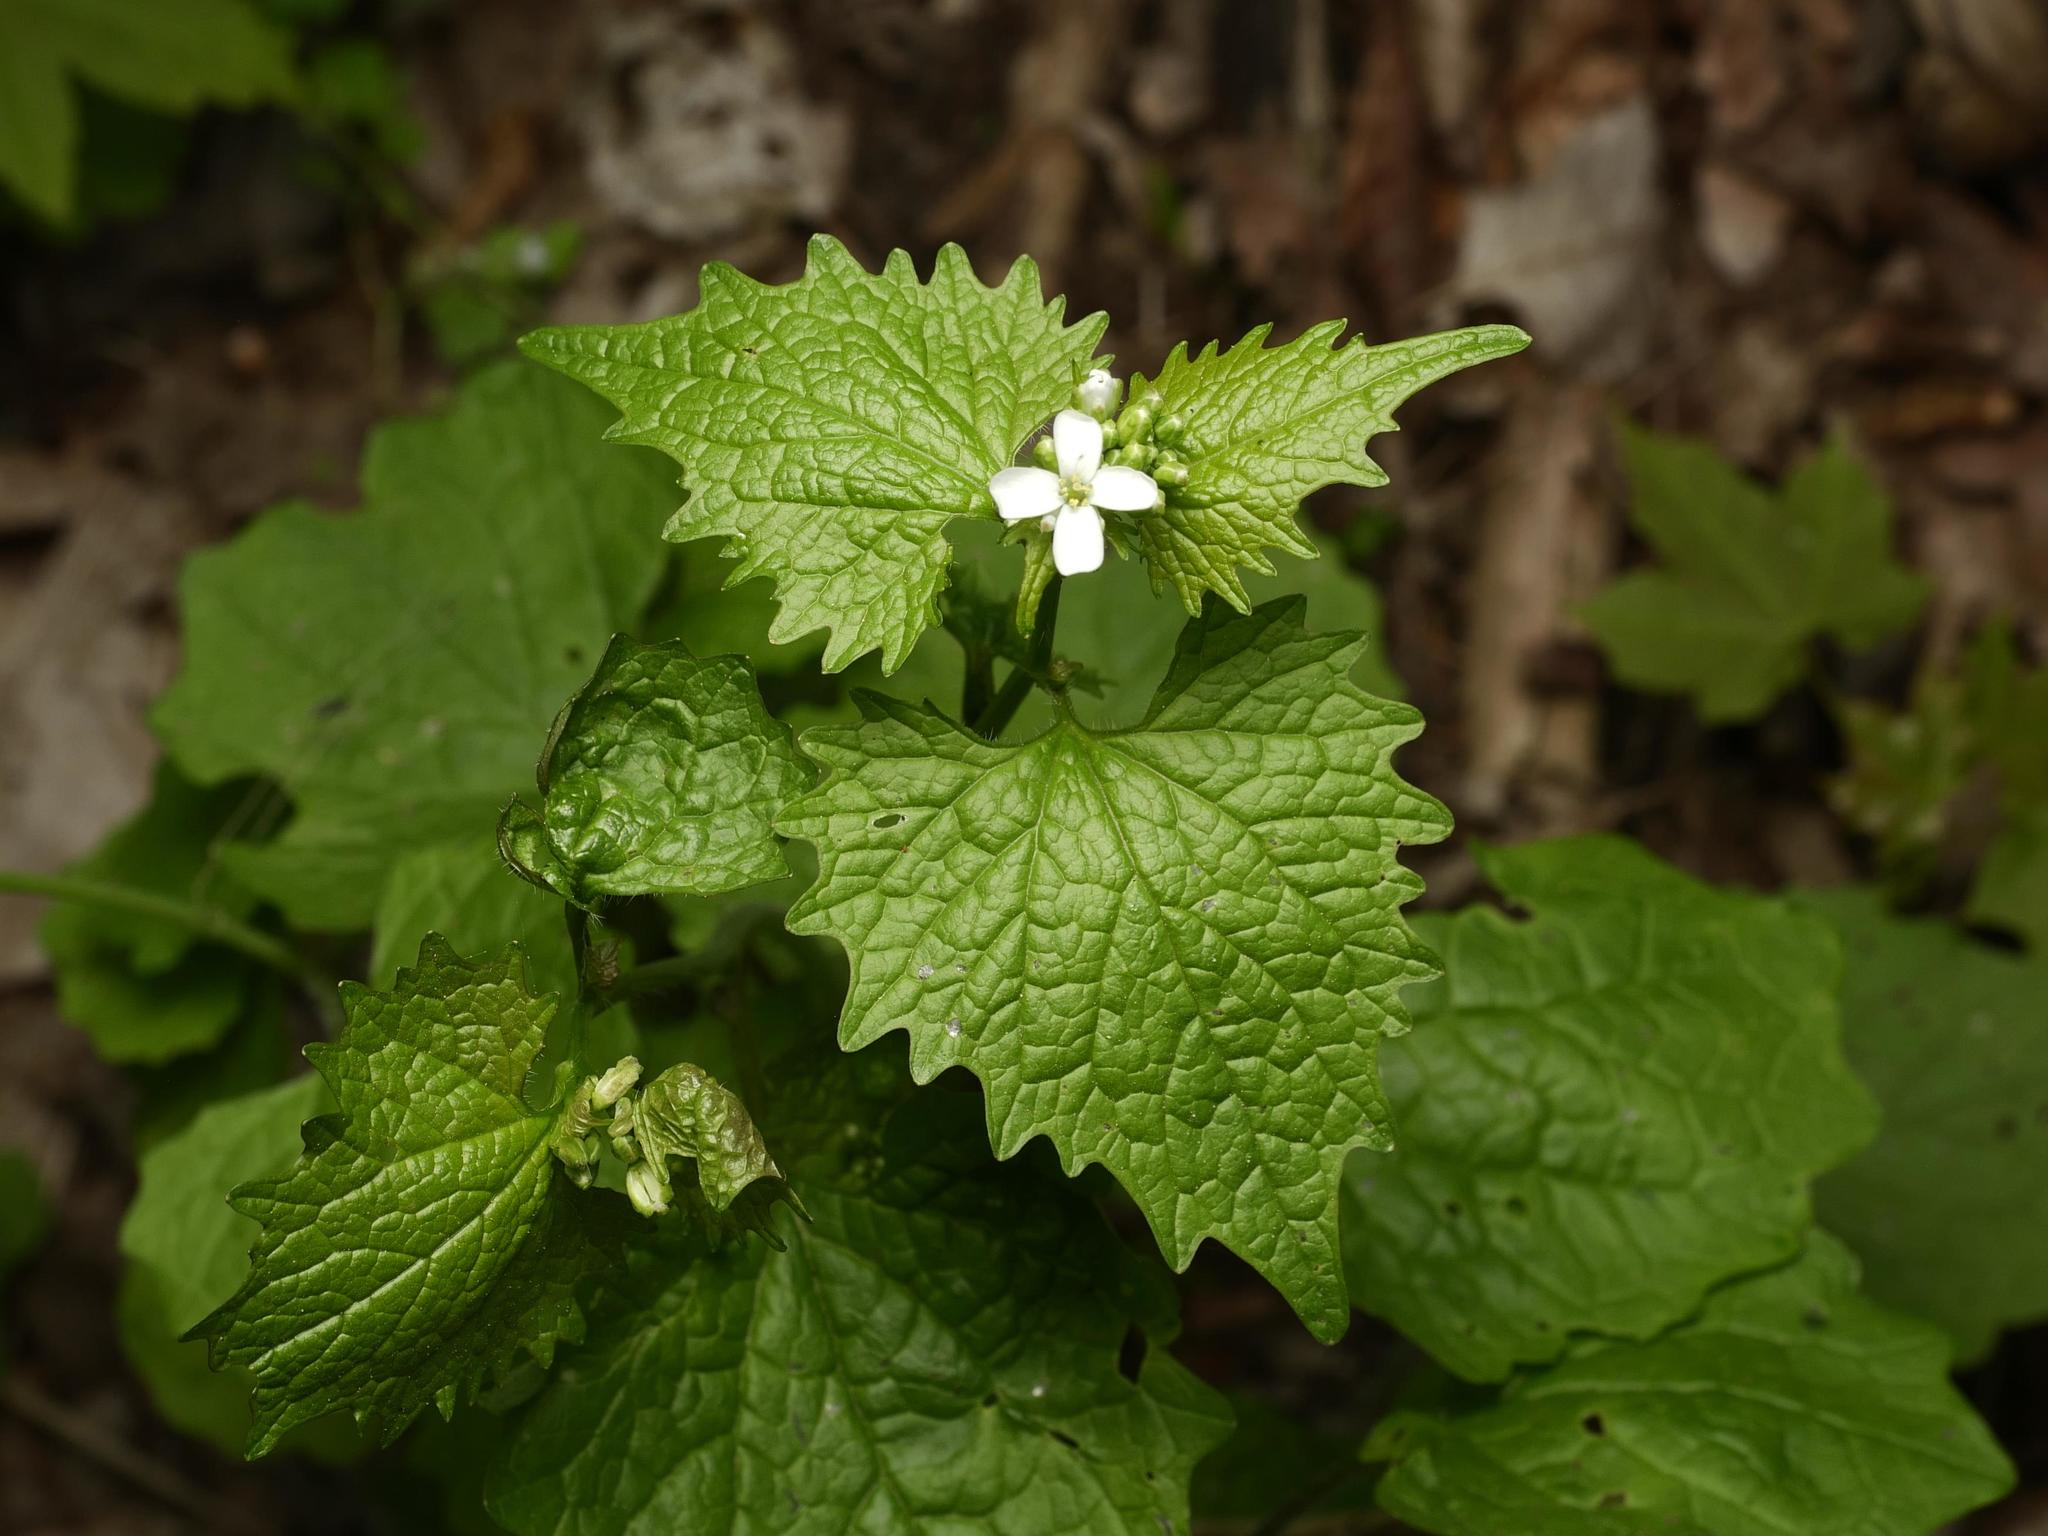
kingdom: Plantae
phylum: Tracheophyta
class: Magnoliopsida
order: Brassicales
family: Brassicaceae
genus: Alliaria
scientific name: Alliaria petiolata
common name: Garlic mustard
